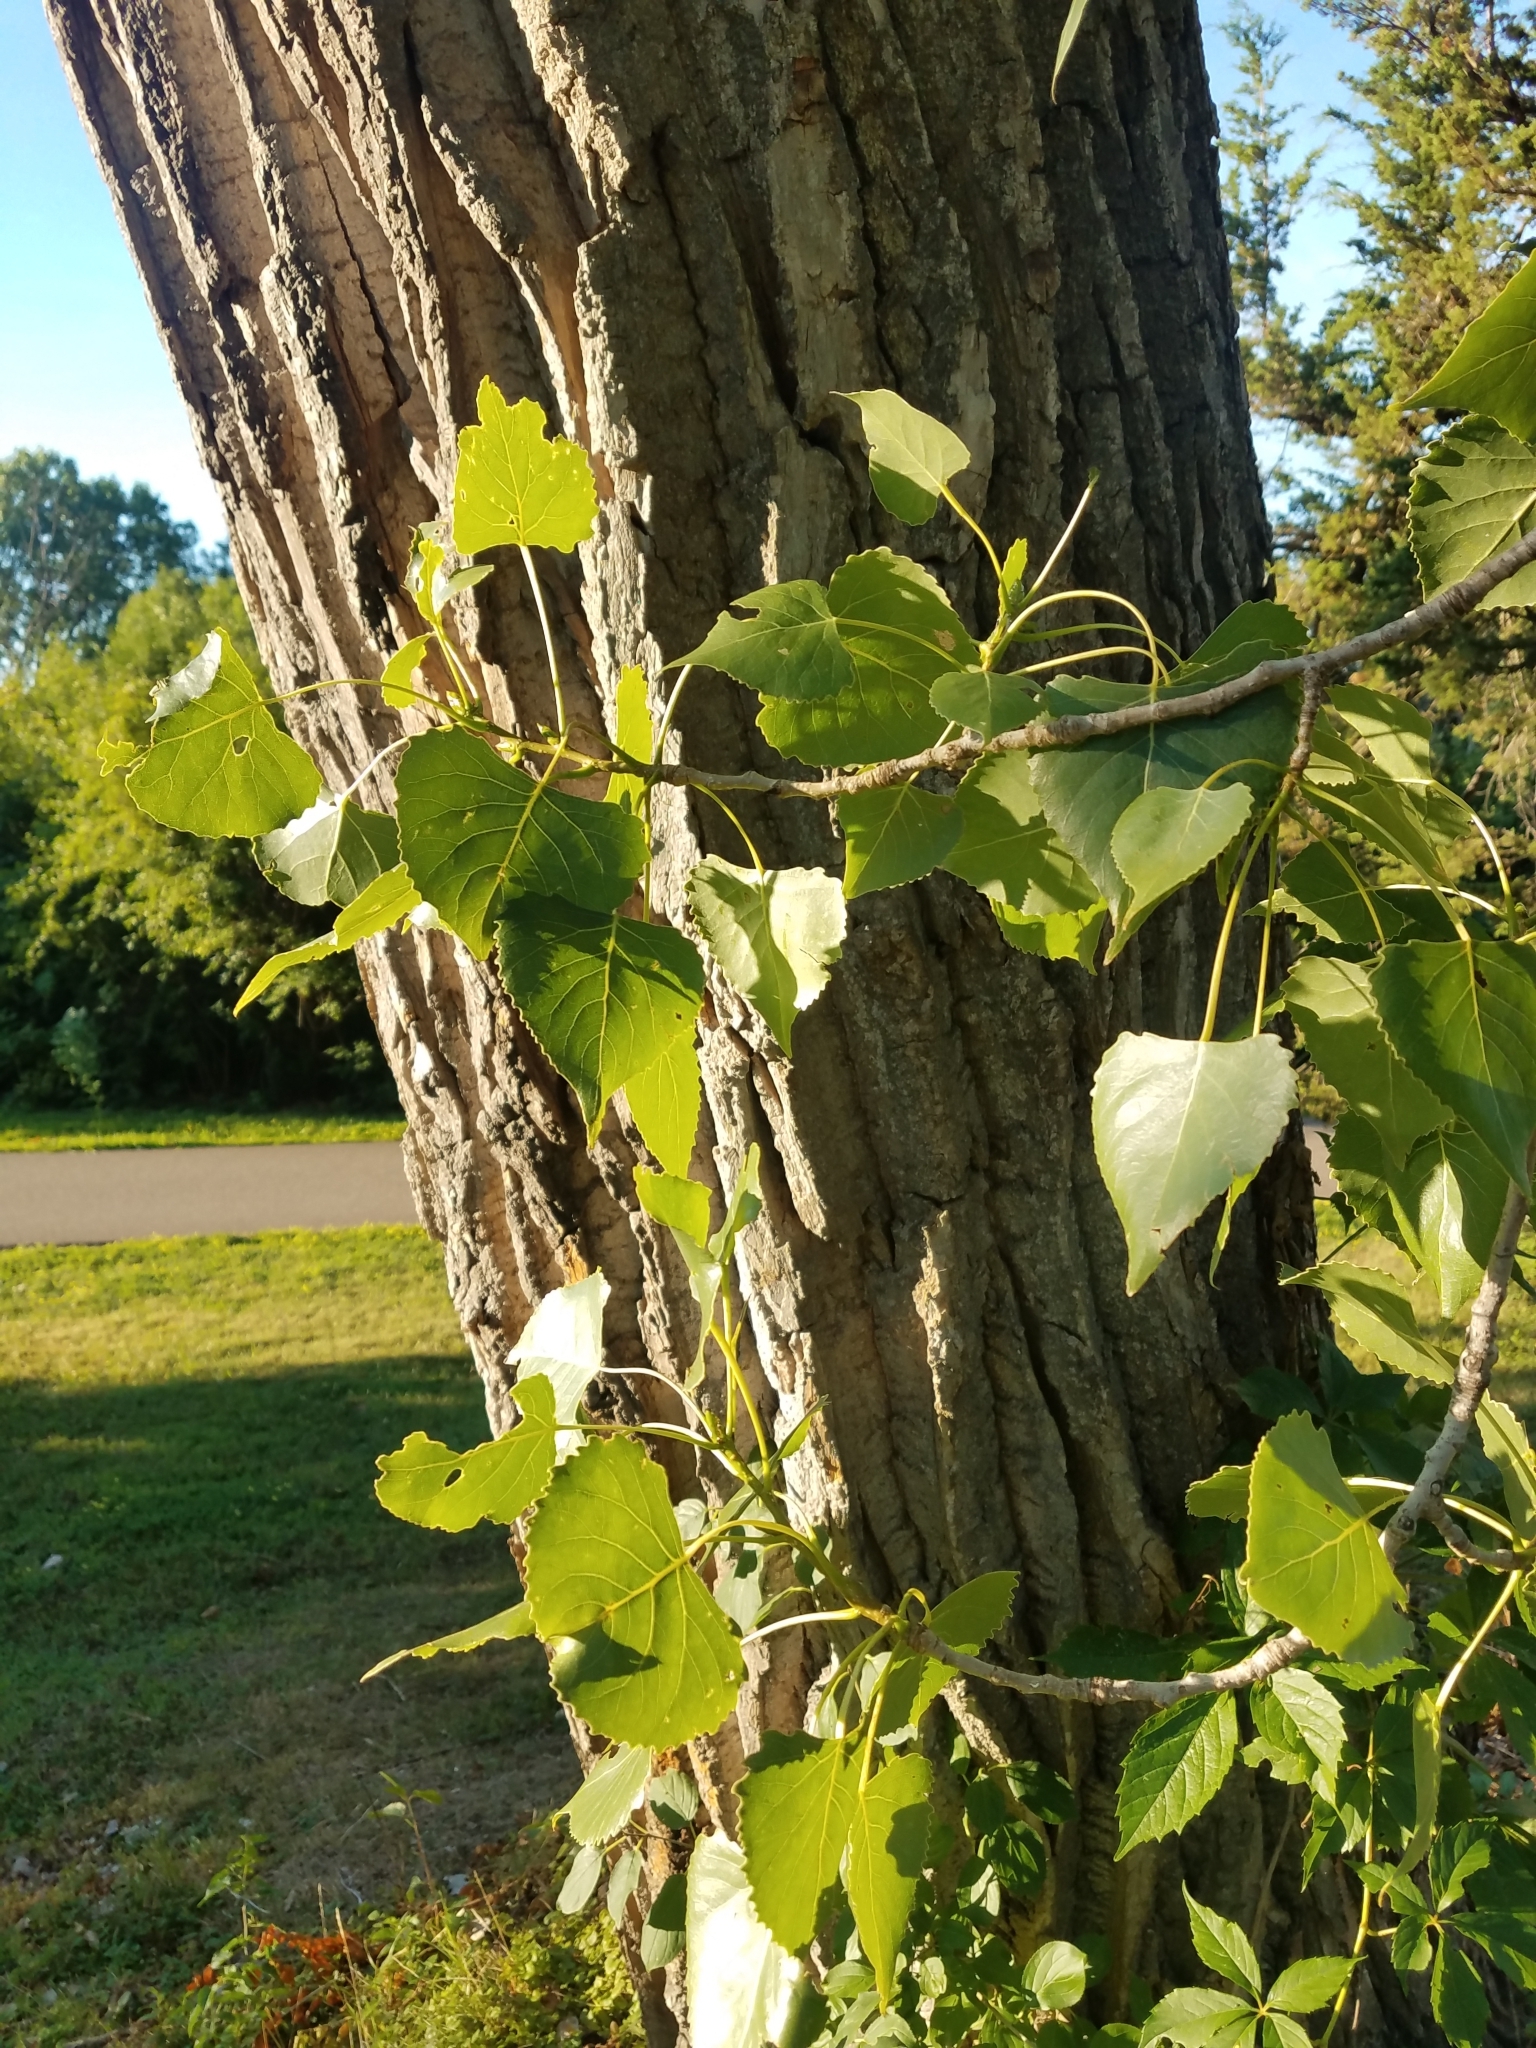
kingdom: Plantae
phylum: Tracheophyta
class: Magnoliopsida
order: Malpighiales
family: Salicaceae
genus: Populus
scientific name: Populus deltoides
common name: Eastern cottonwood
